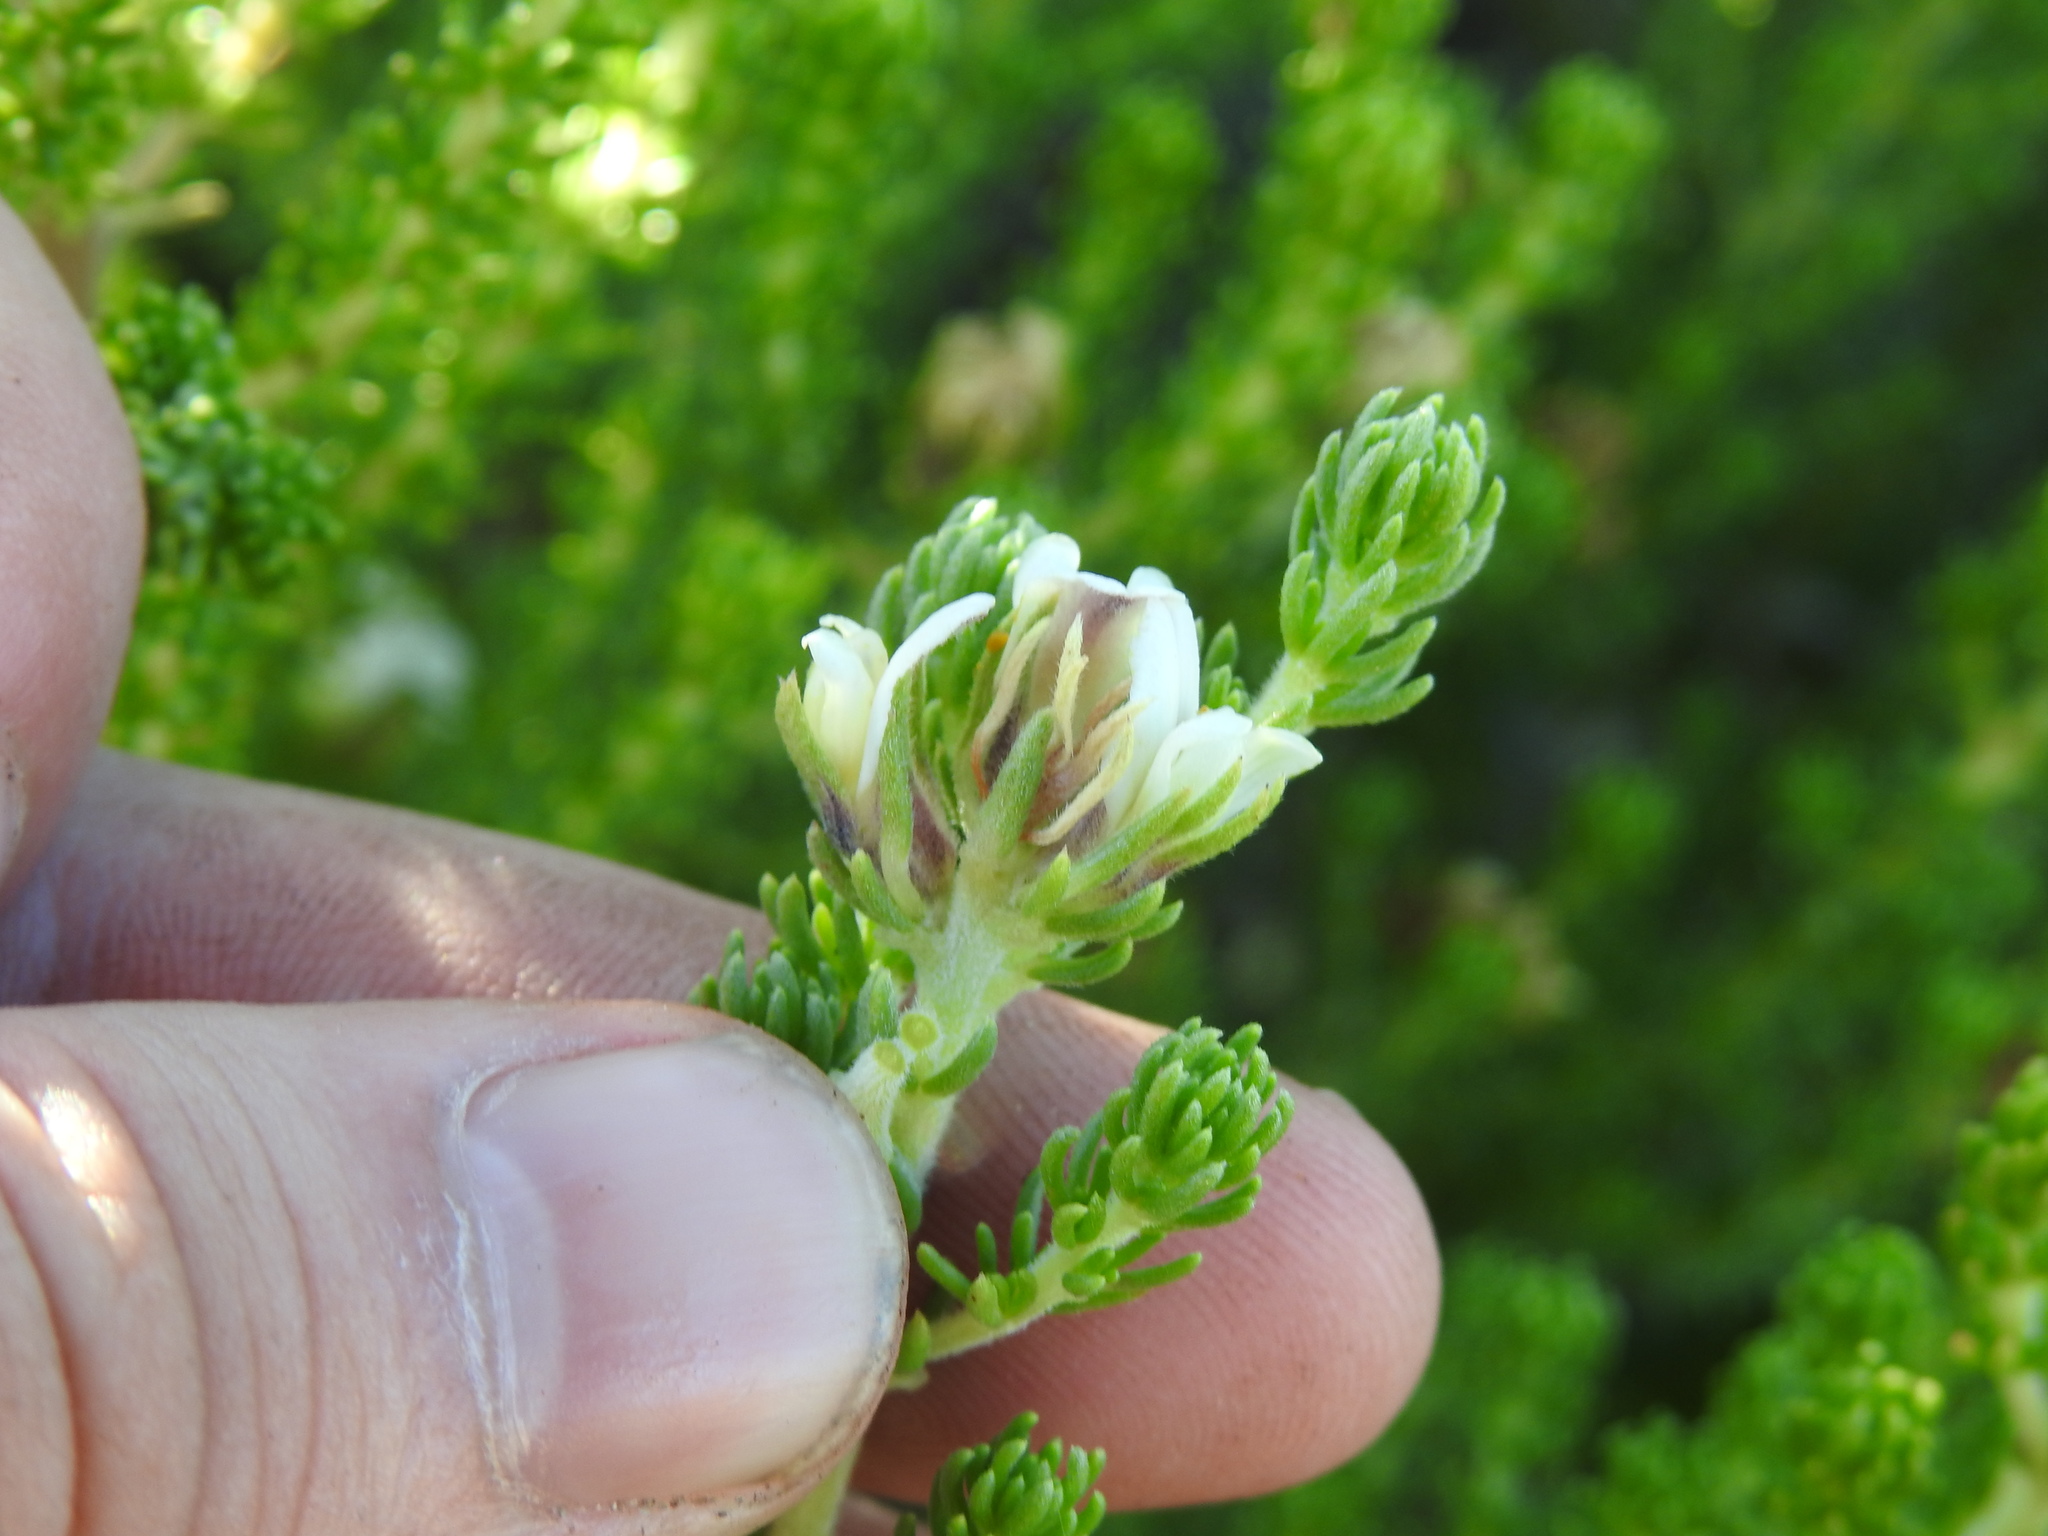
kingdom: Plantae
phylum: Tracheophyta
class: Magnoliopsida
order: Fabales
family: Fabaceae
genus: Aspalathus
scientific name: Aspalathus hispida
